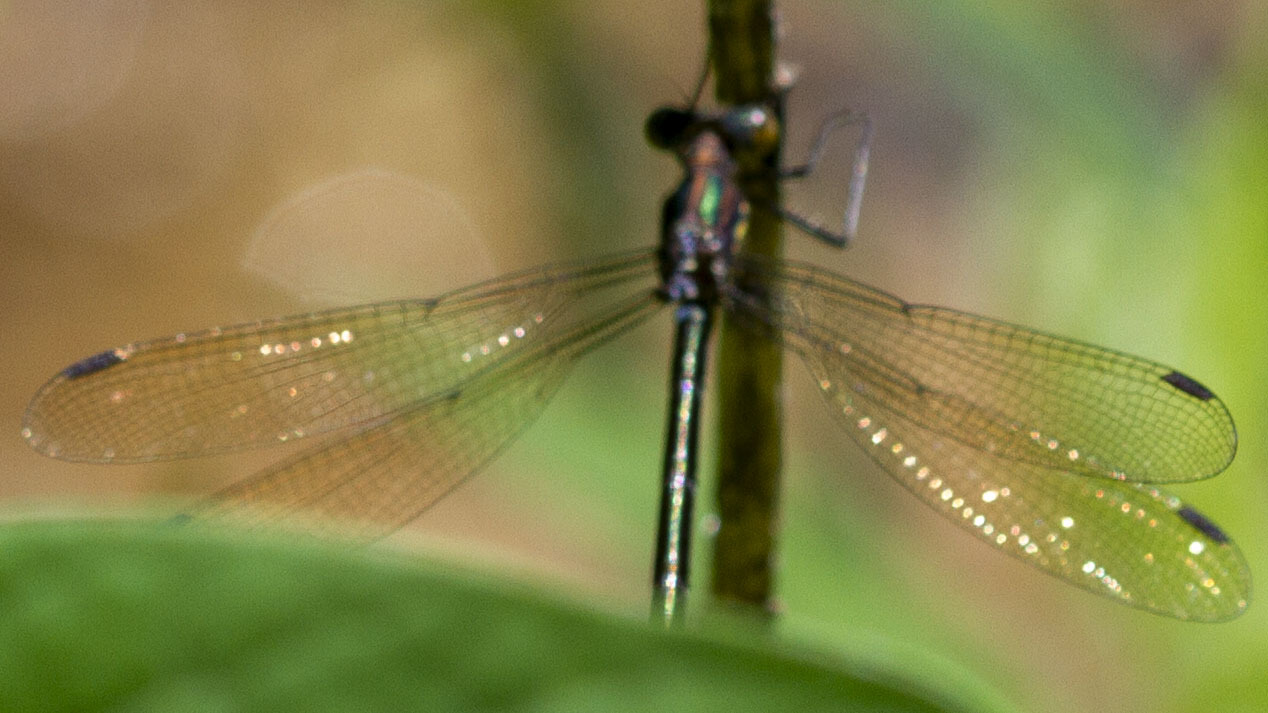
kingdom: Animalia
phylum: Arthropoda
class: Insecta
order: Odonata
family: Lestidae
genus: Lestes
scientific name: Lestes eurinus
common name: Amber-winged spreadwing
